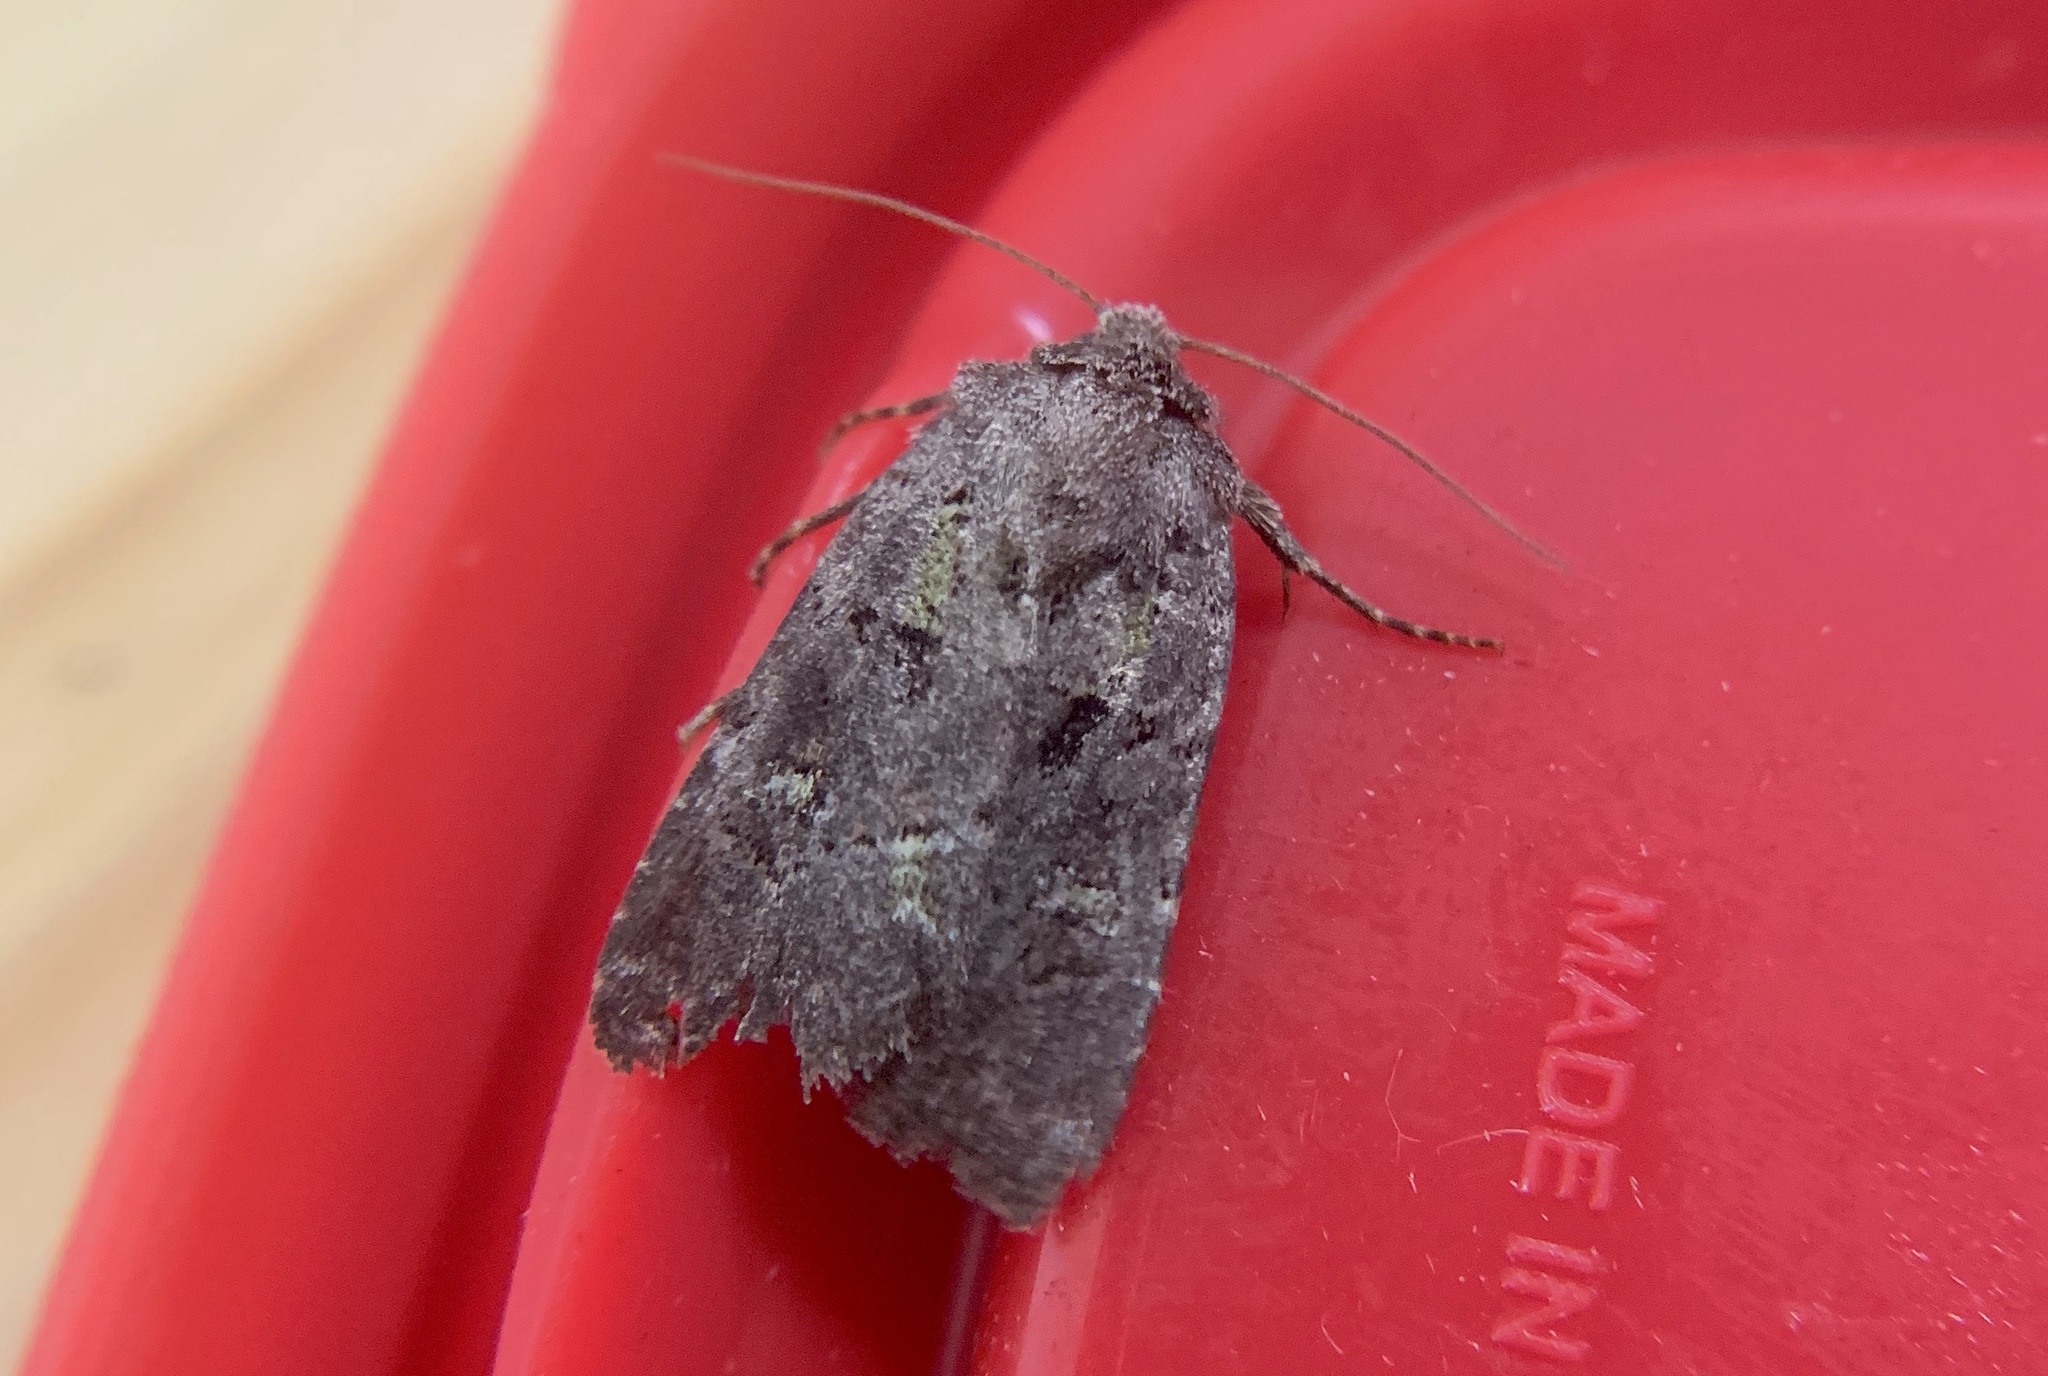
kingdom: Animalia
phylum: Arthropoda
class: Insecta
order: Lepidoptera
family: Noctuidae
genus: Lacinipolia
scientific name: Lacinipolia renigera
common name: Kidney-spotted minor
